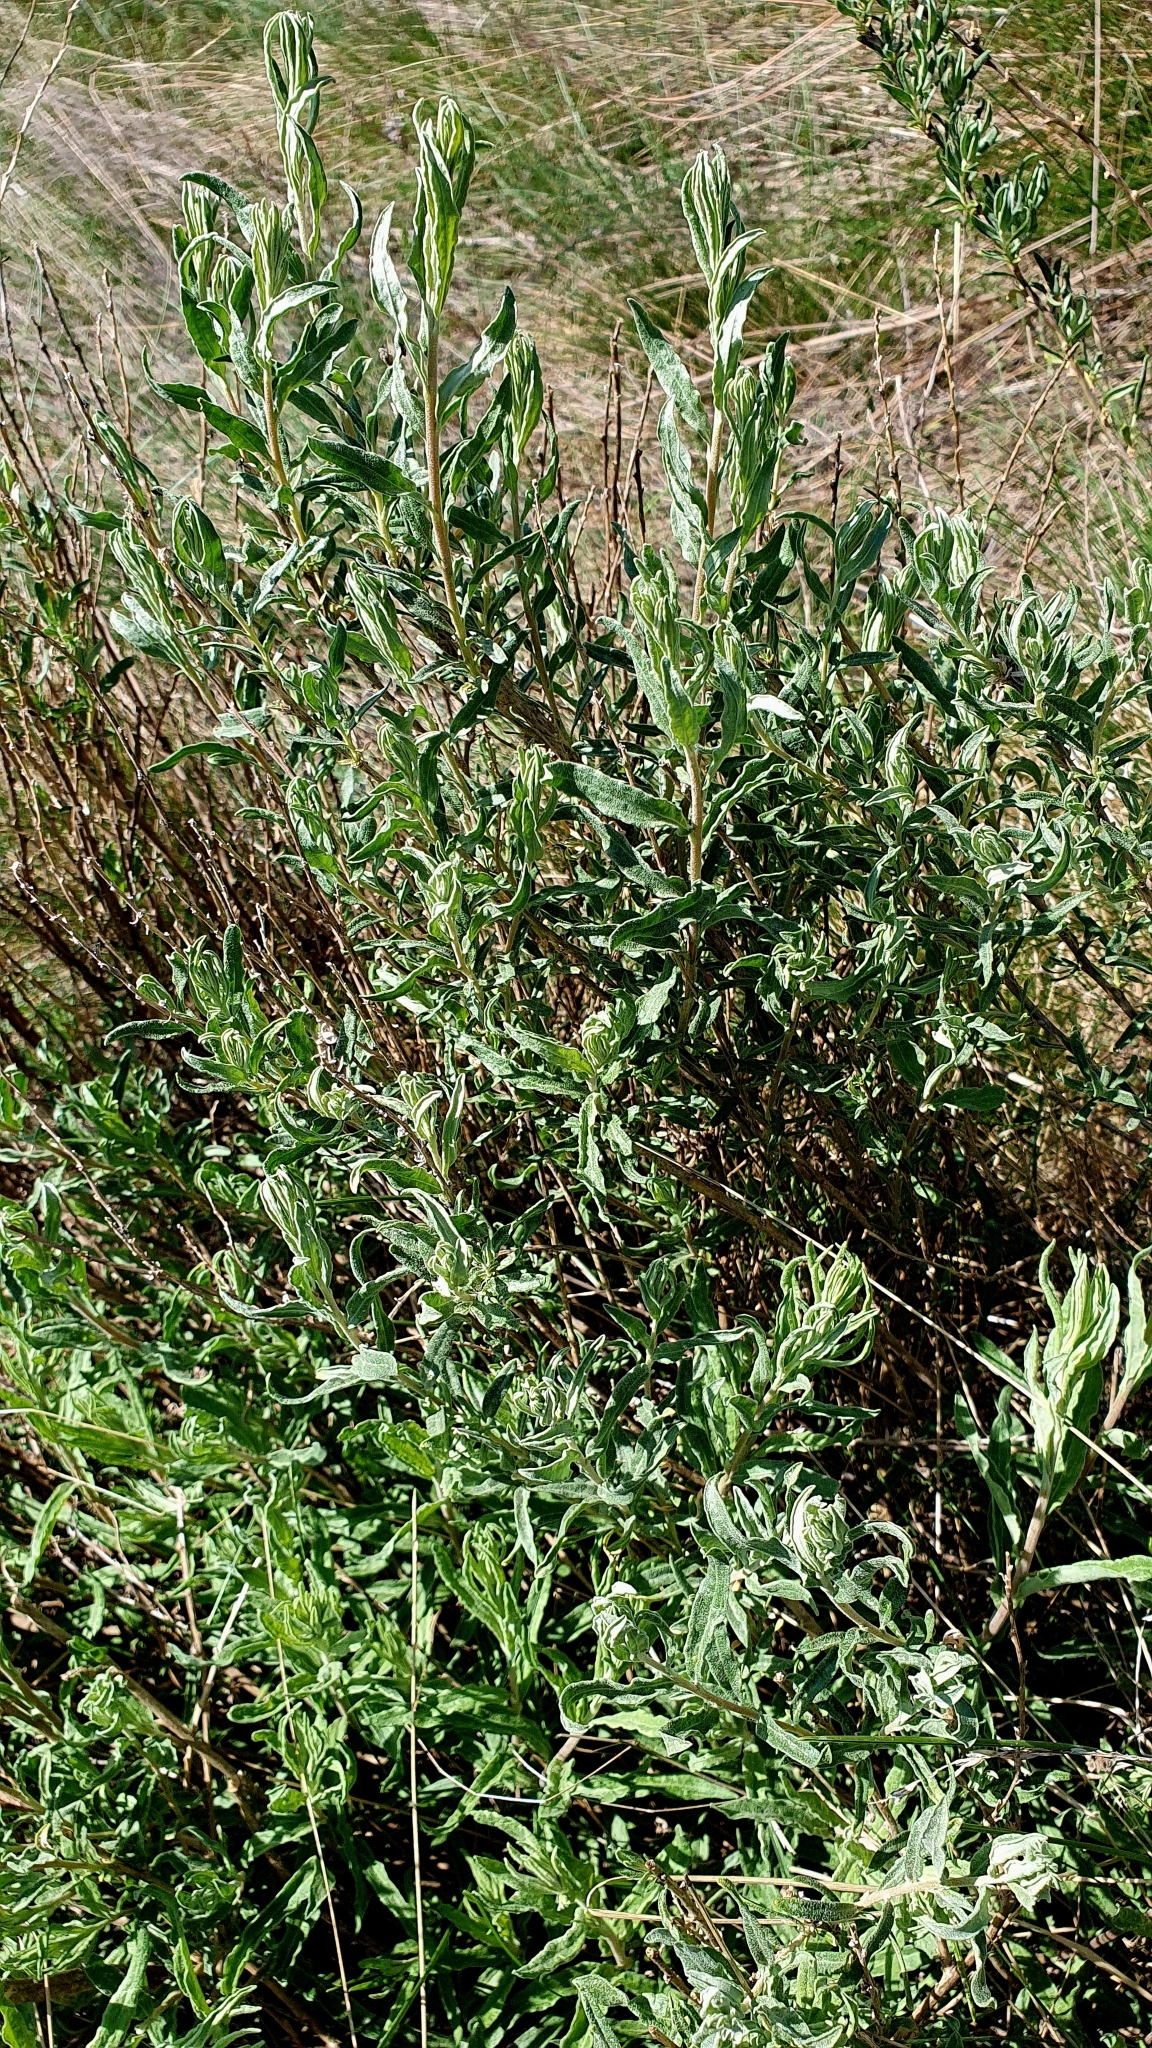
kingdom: Plantae
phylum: Tracheophyta
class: Magnoliopsida
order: Caryophyllales
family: Amaranthaceae
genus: Krascheninnikovia
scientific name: Krascheninnikovia ceratoides
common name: Pamirian winterfat
